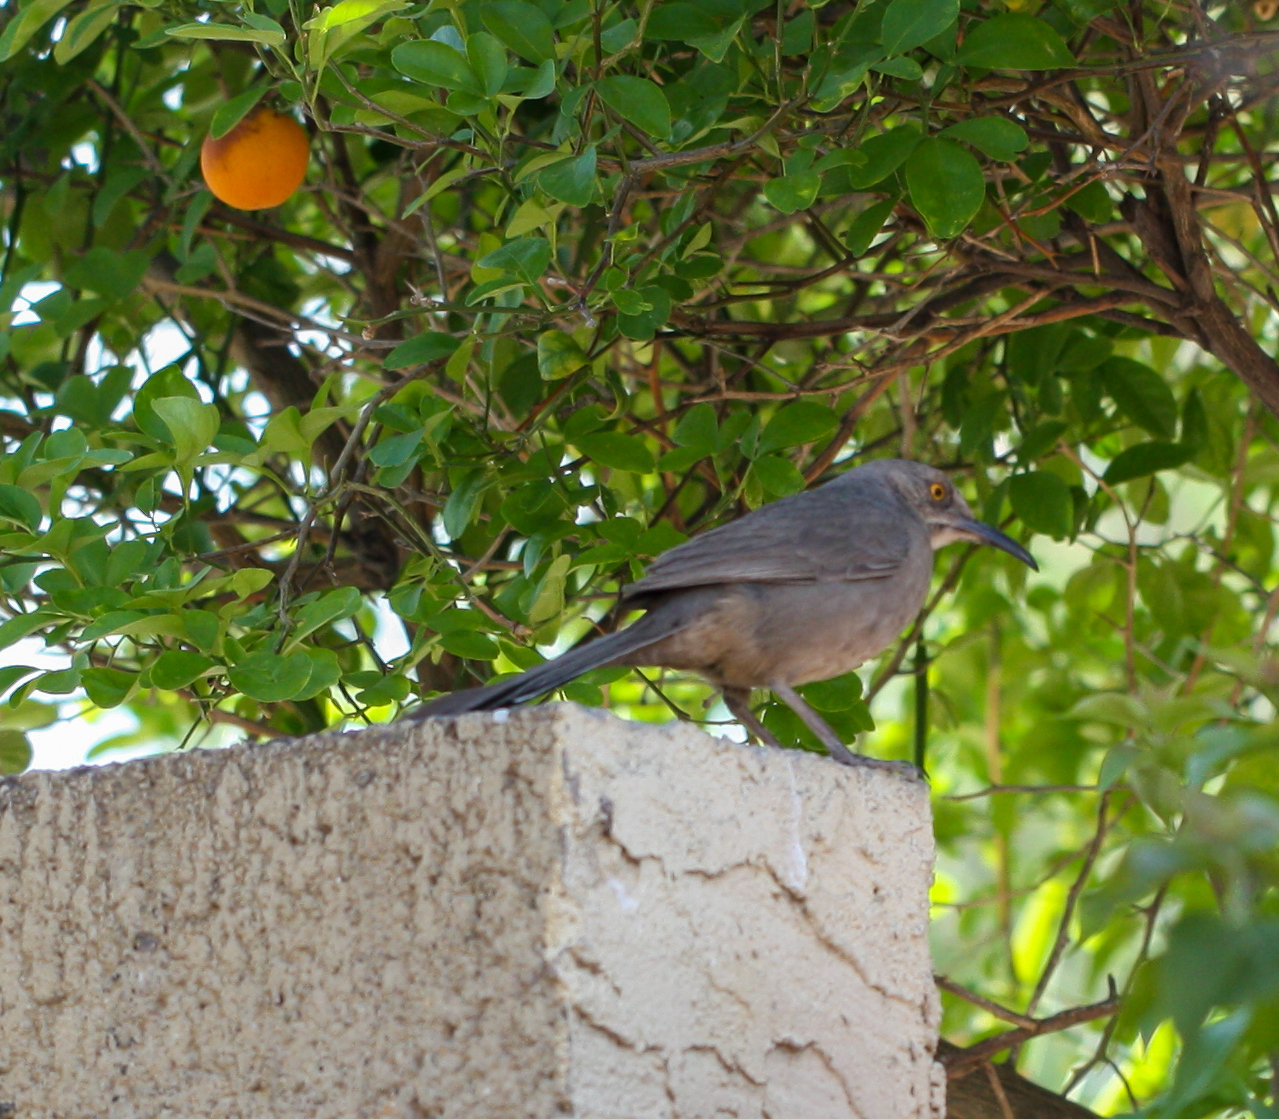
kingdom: Animalia
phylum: Chordata
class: Aves
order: Passeriformes
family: Mimidae
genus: Toxostoma
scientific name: Toxostoma curvirostre
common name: Curve-billed thrasher
